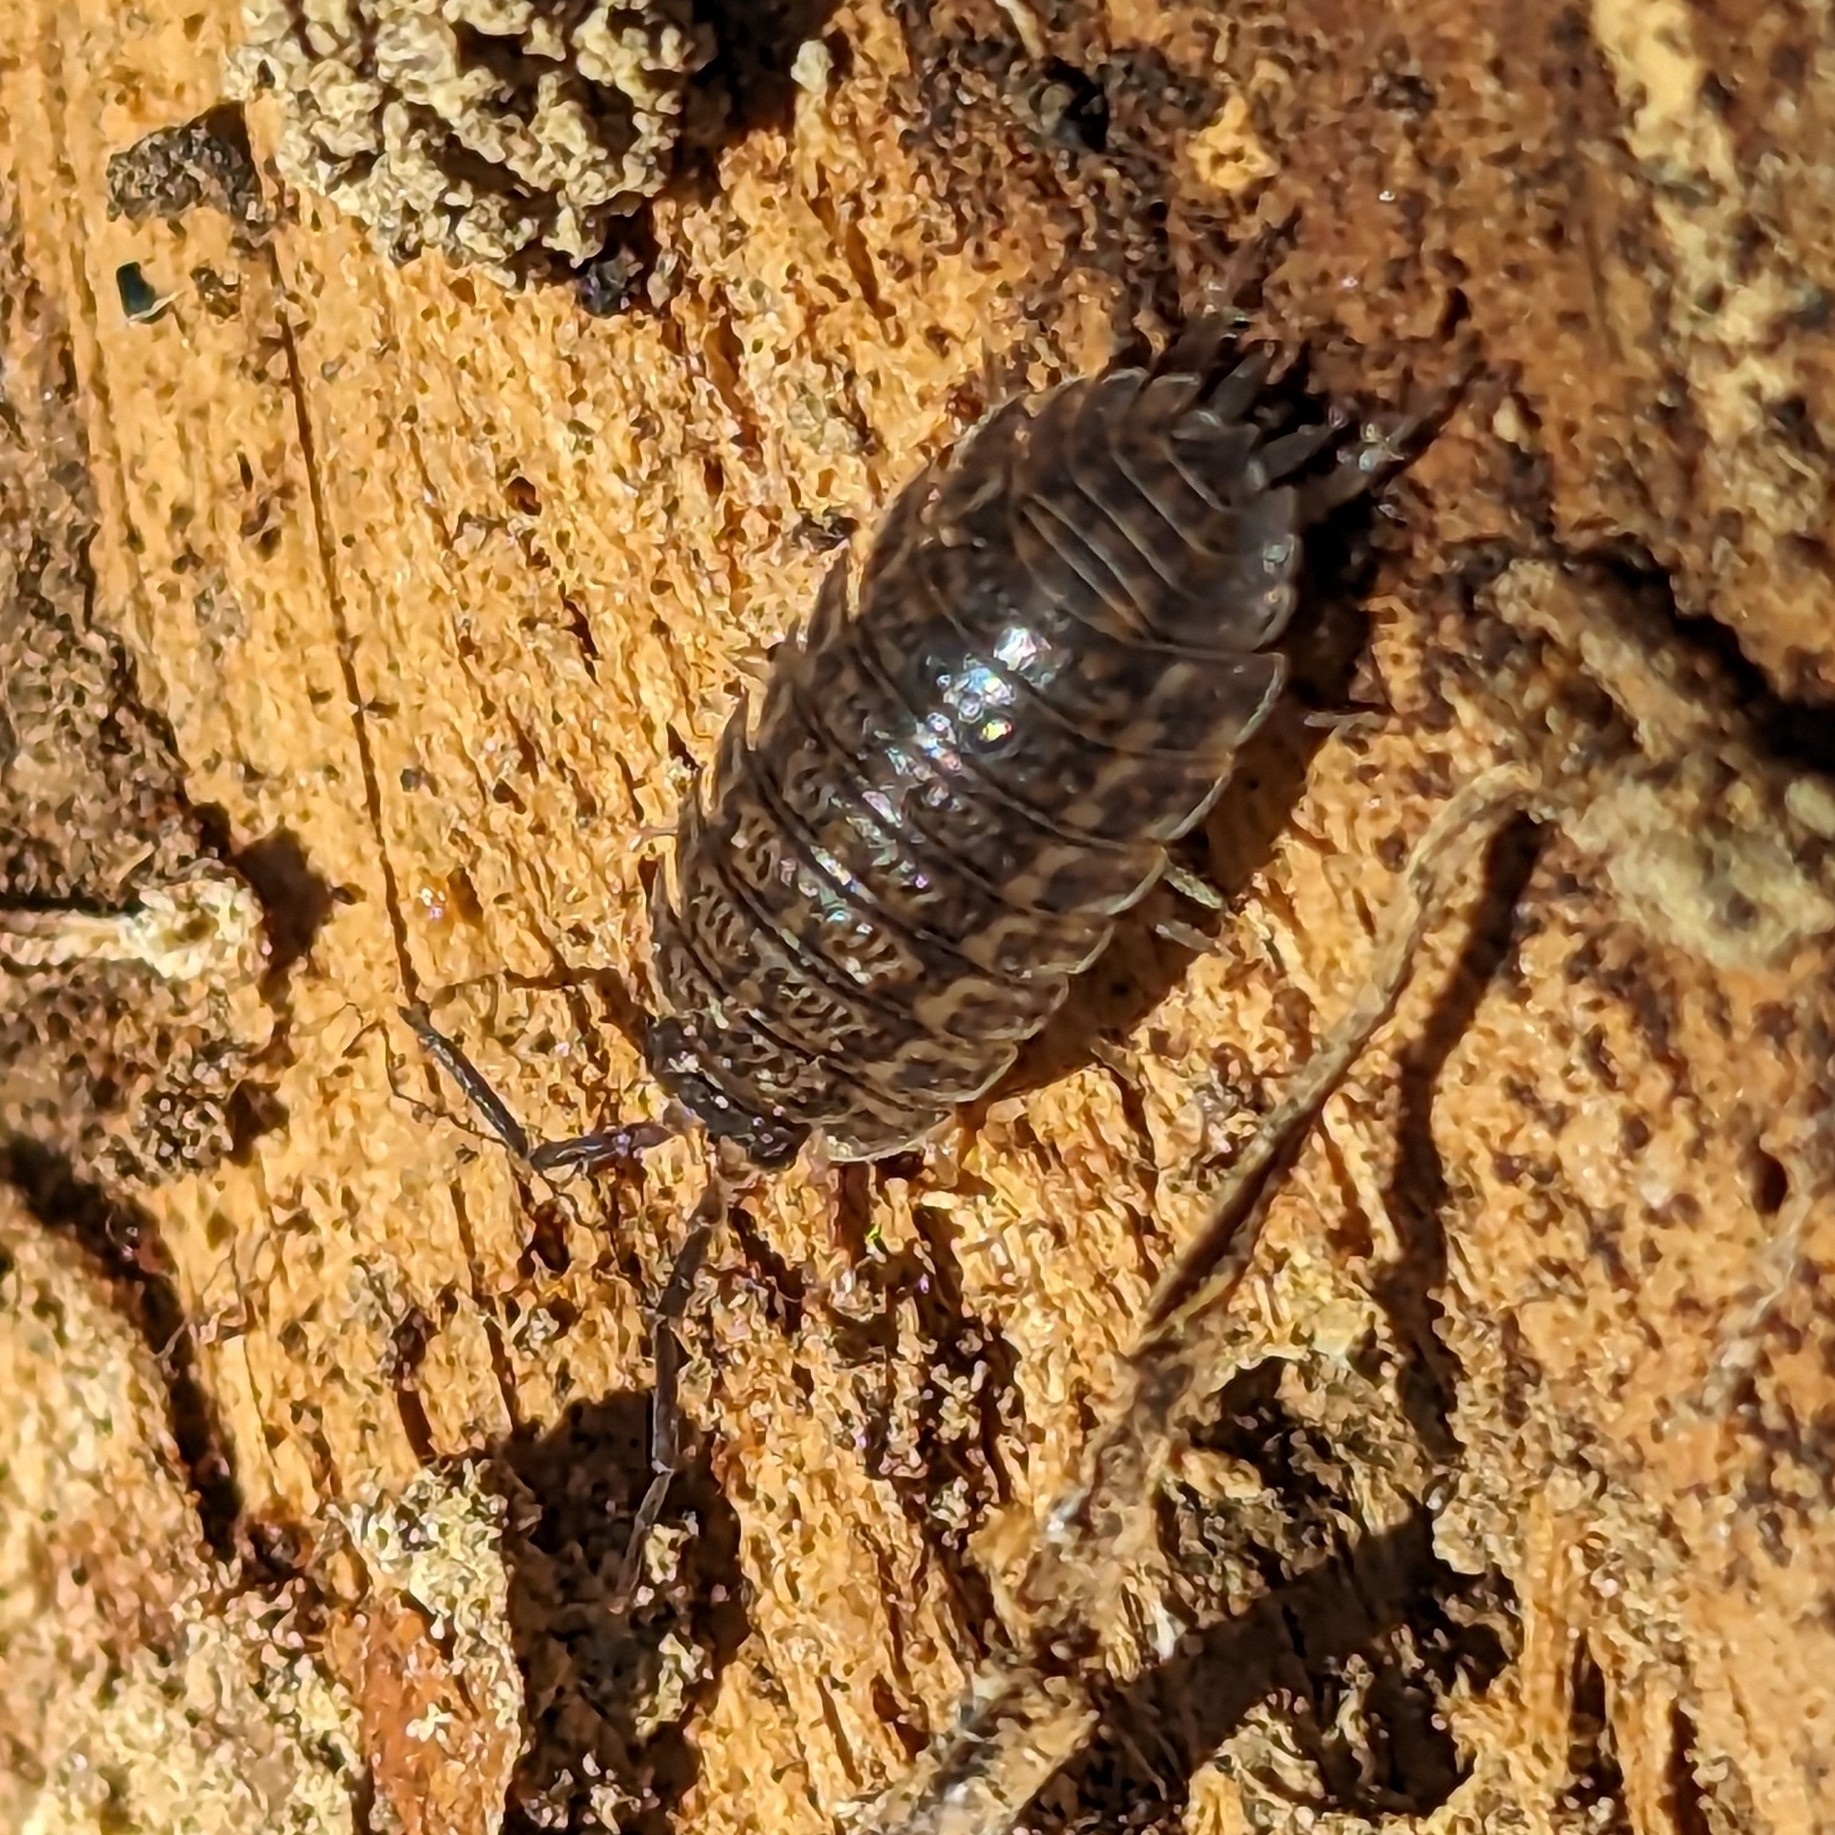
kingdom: Animalia
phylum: Arthropoda
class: Malacostraca
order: Isopoda
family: Trachelipodidae
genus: Trachelipus
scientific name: Trachelipus rathkii
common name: Isopod
